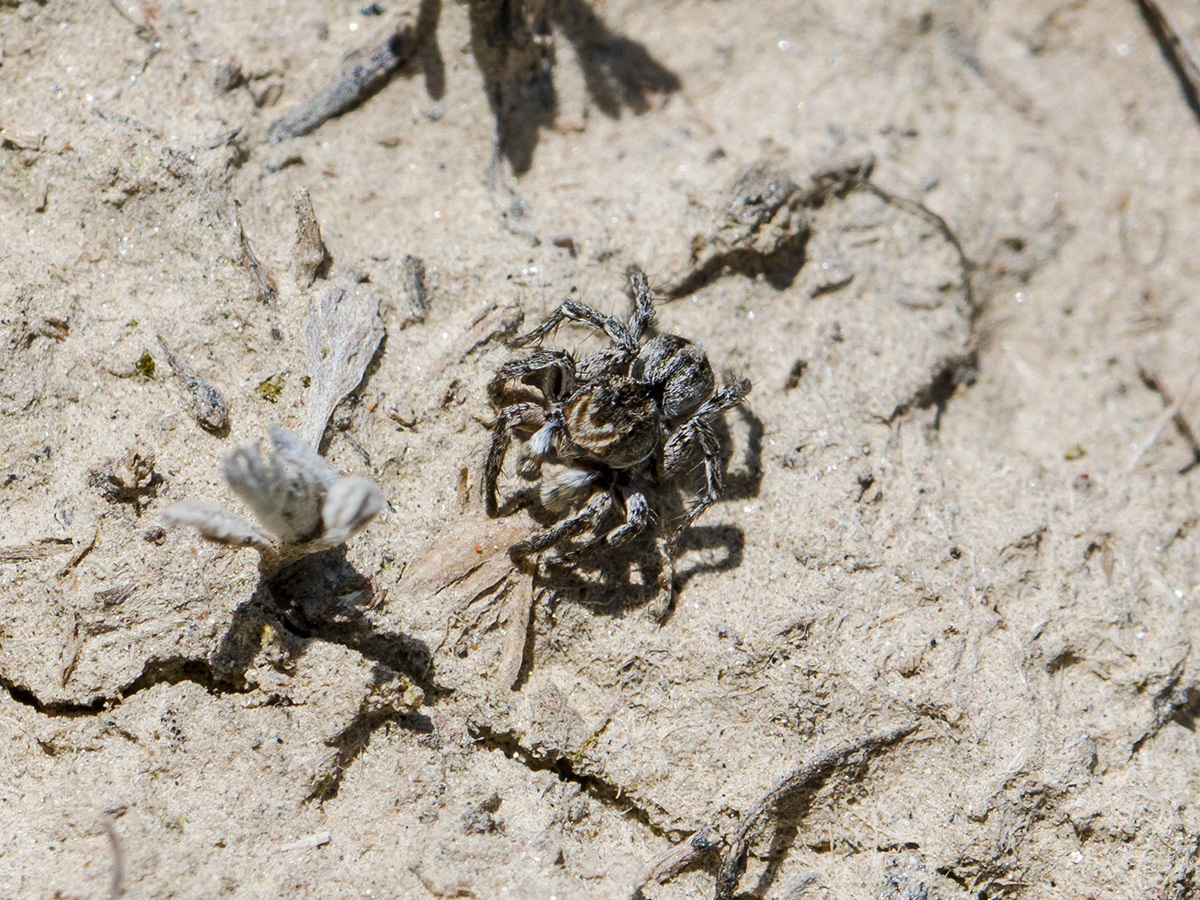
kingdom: Animalia
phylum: Arthropoda
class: Arachnida
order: Araneae
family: Salticidae
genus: Aelurillus
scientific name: Aelurillus v-insignitus
